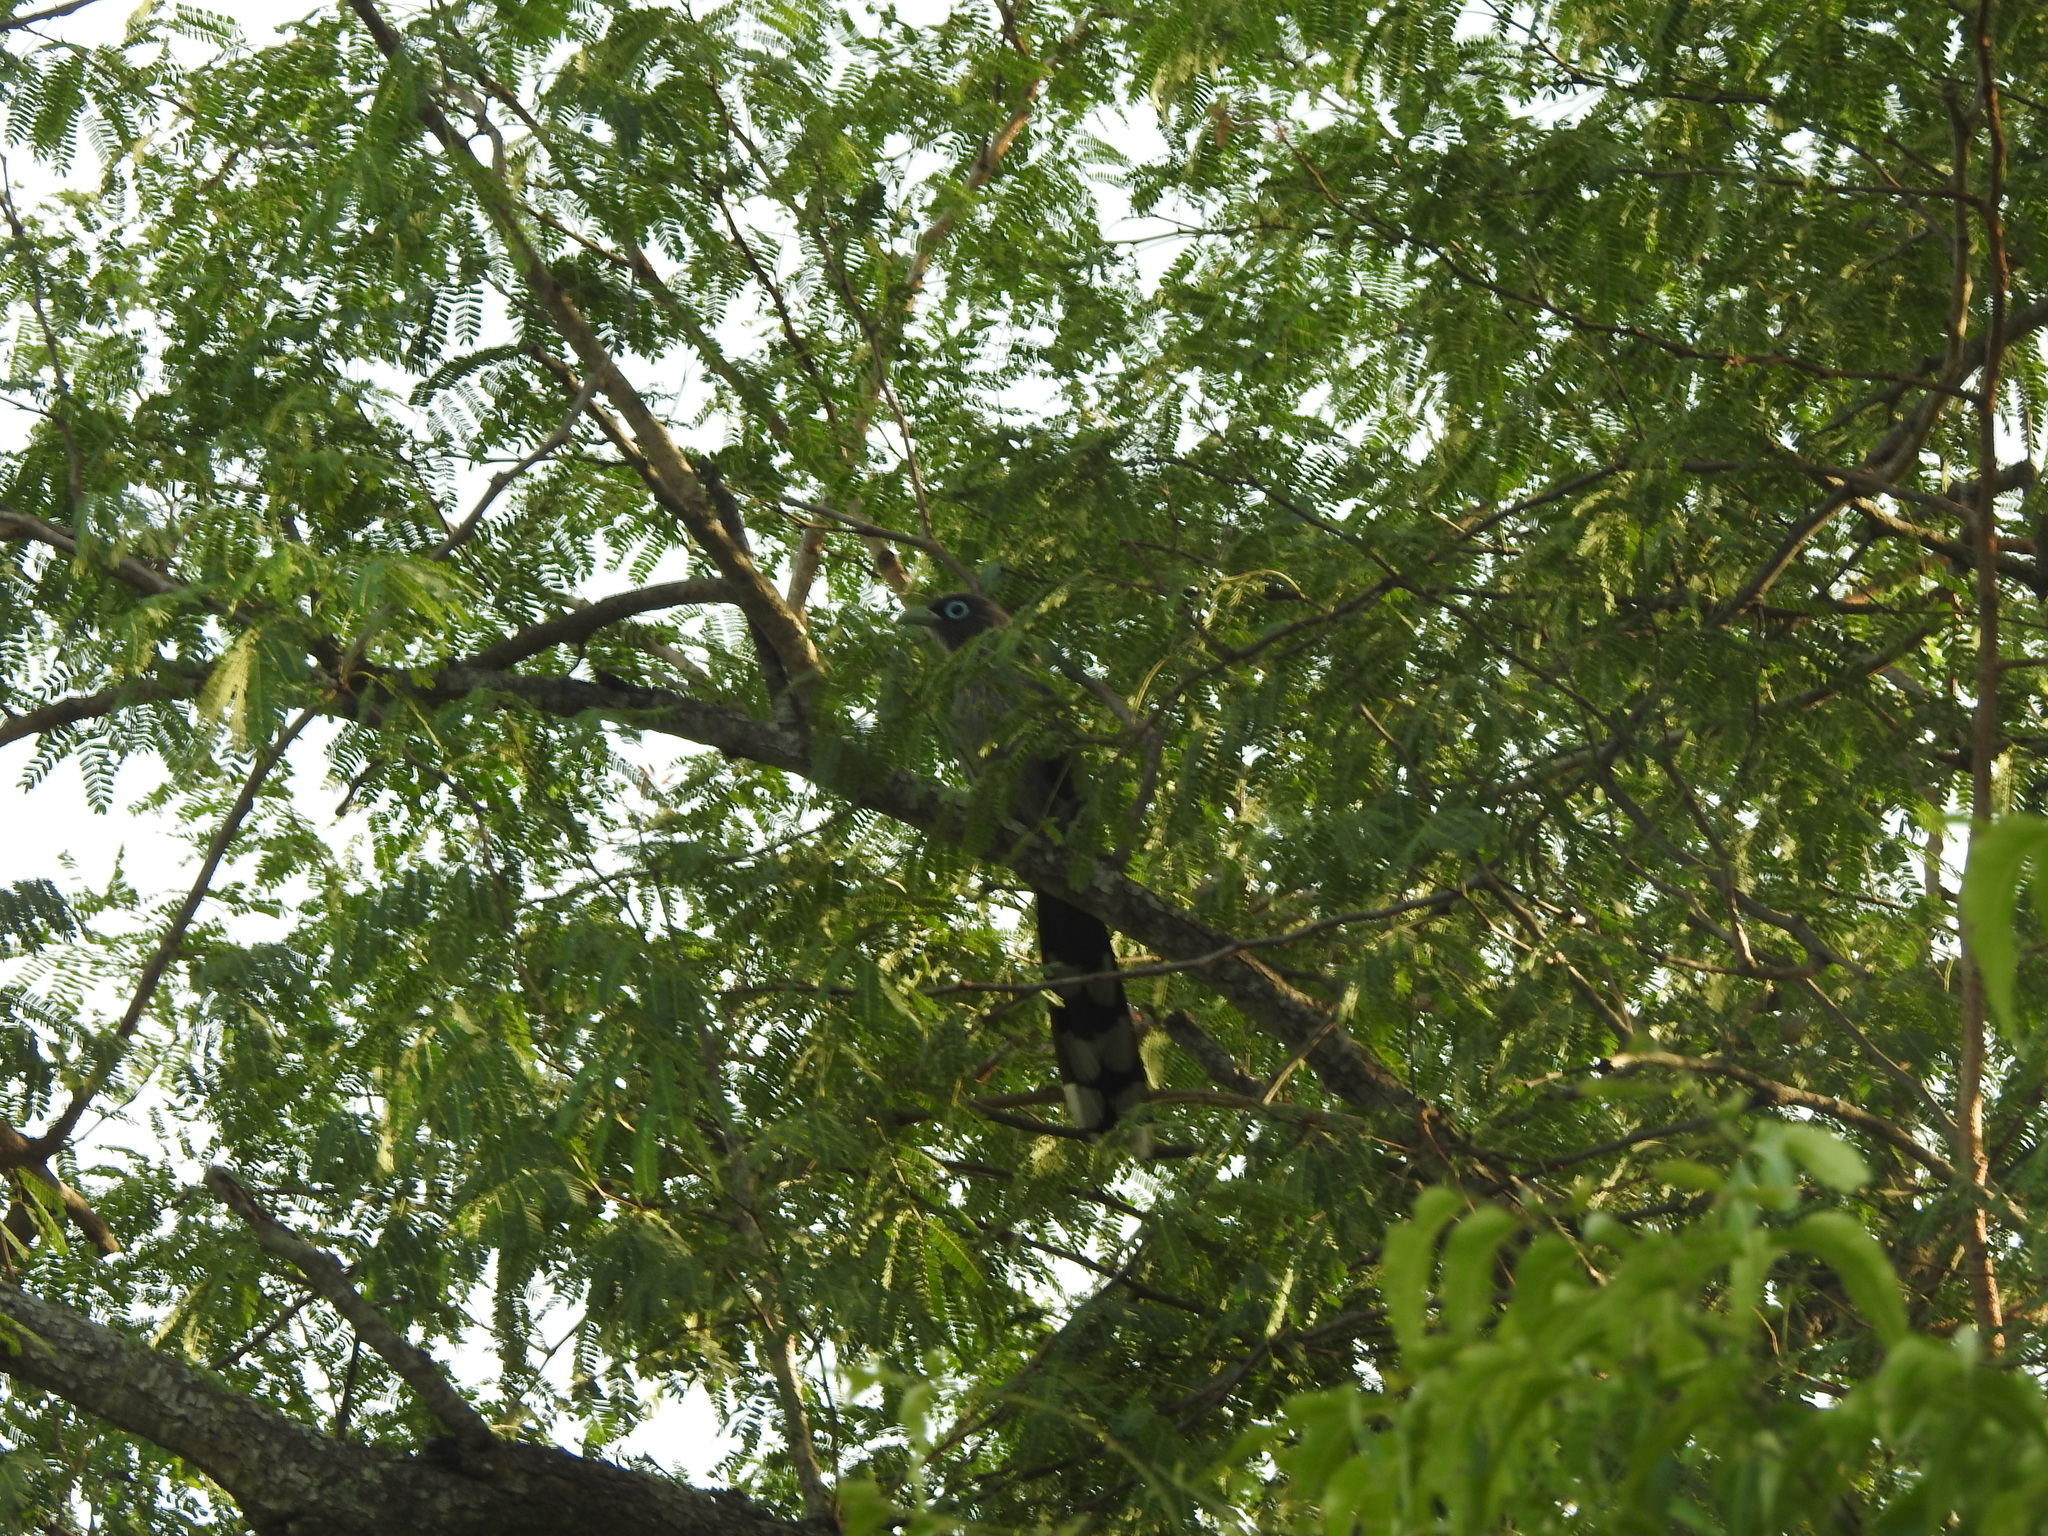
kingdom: Animalia
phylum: Chordata
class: Aves
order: Cuculiformes
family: Cuculidae
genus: Rhopodytes
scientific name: Rhopodytes viridirostris
